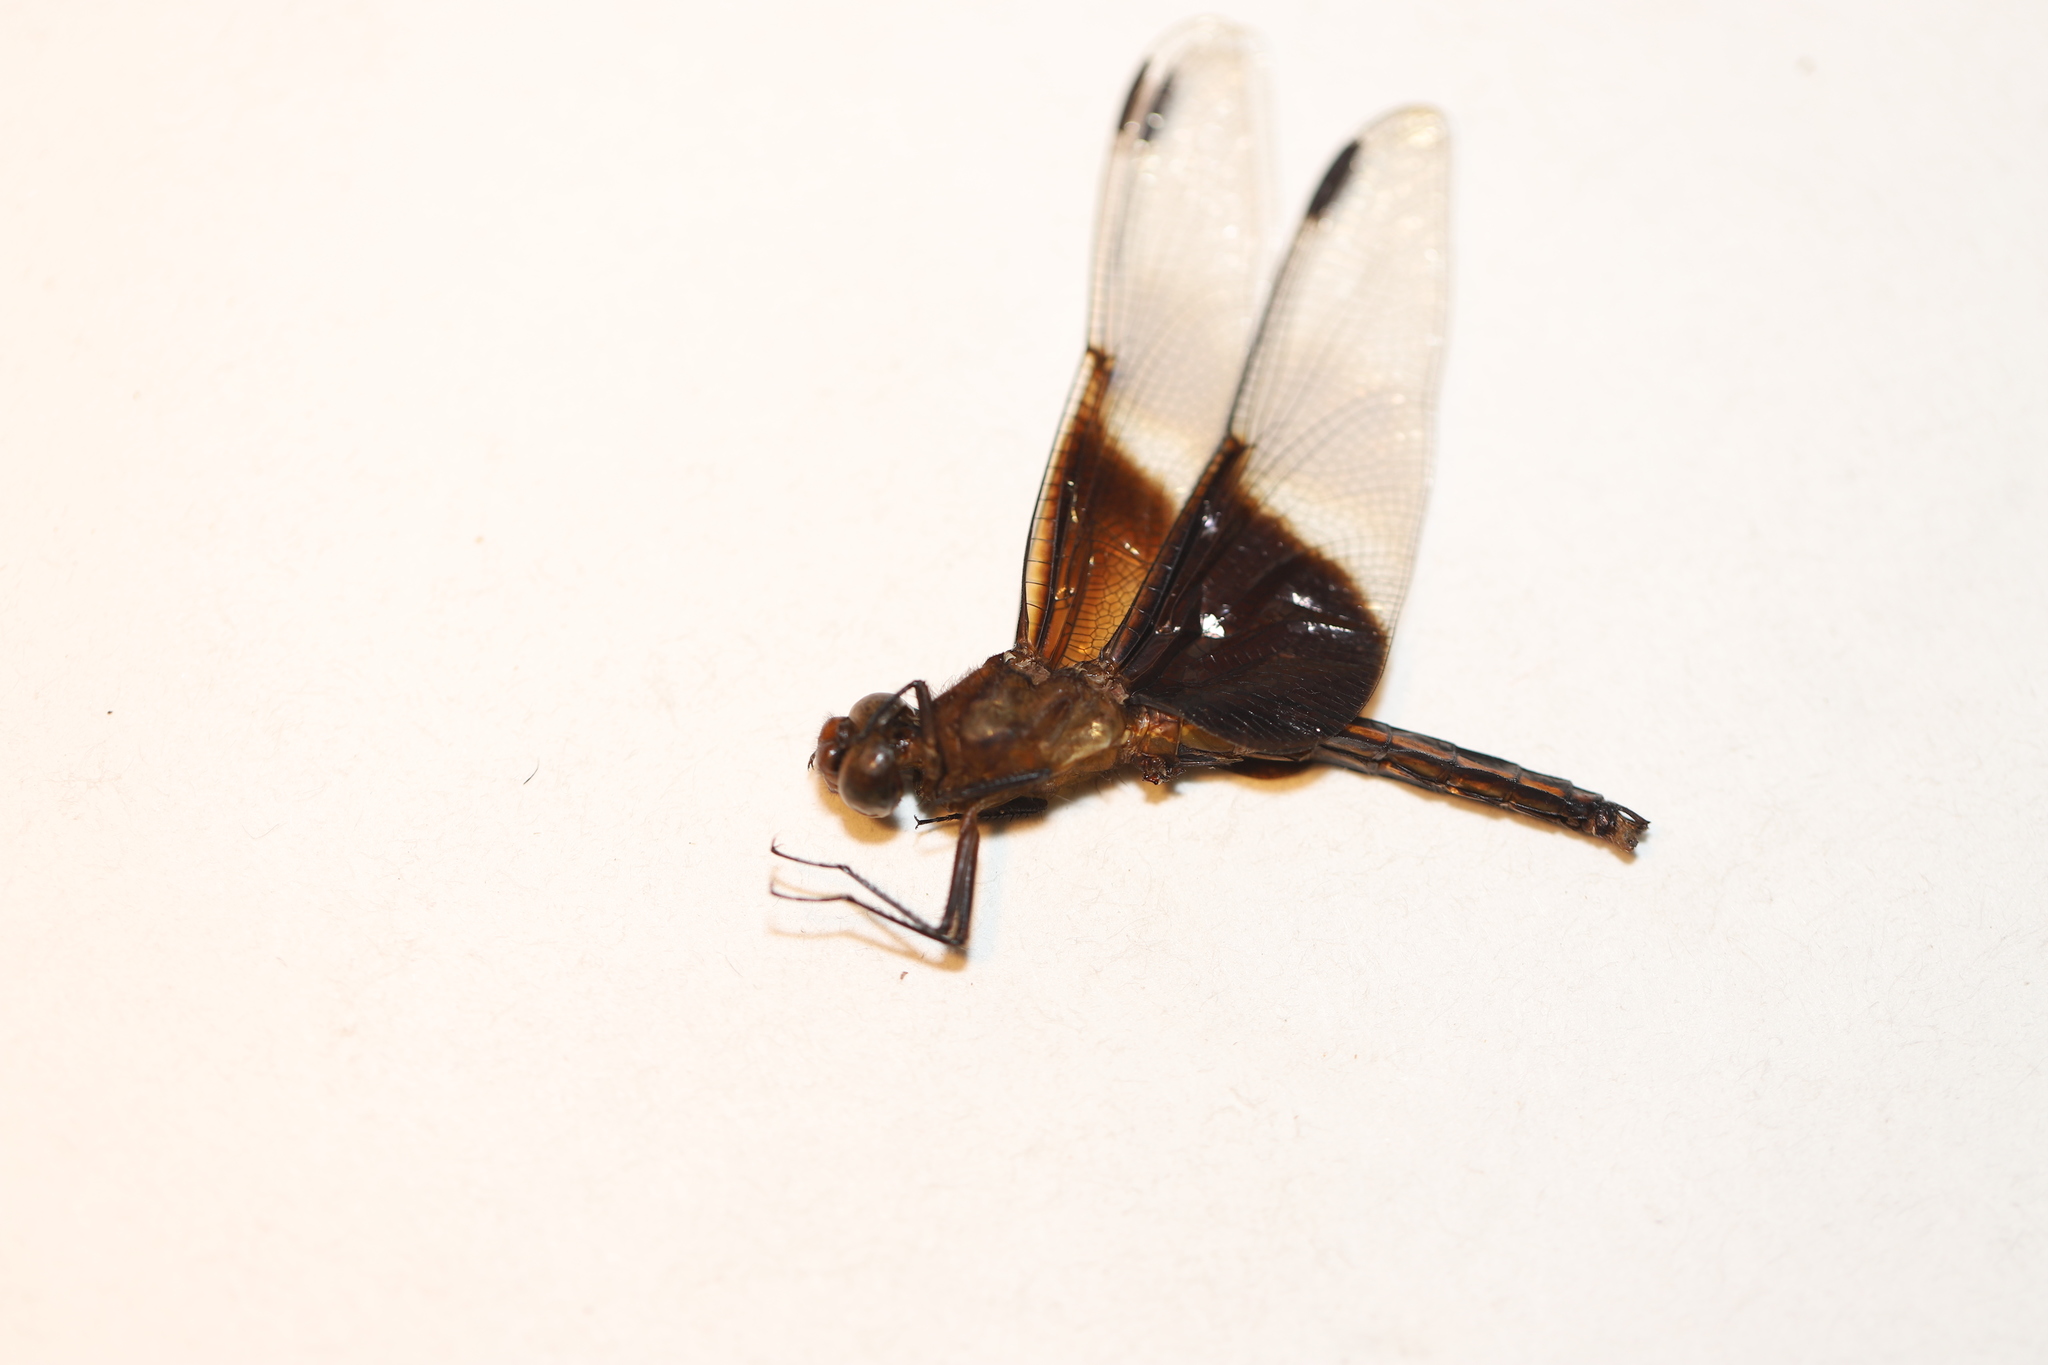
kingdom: Animalia
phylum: Arthropoda
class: Insecta
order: Odonata
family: Libellulidae
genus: Libellula
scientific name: Libellula luctuosa
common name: Widow skimmer
